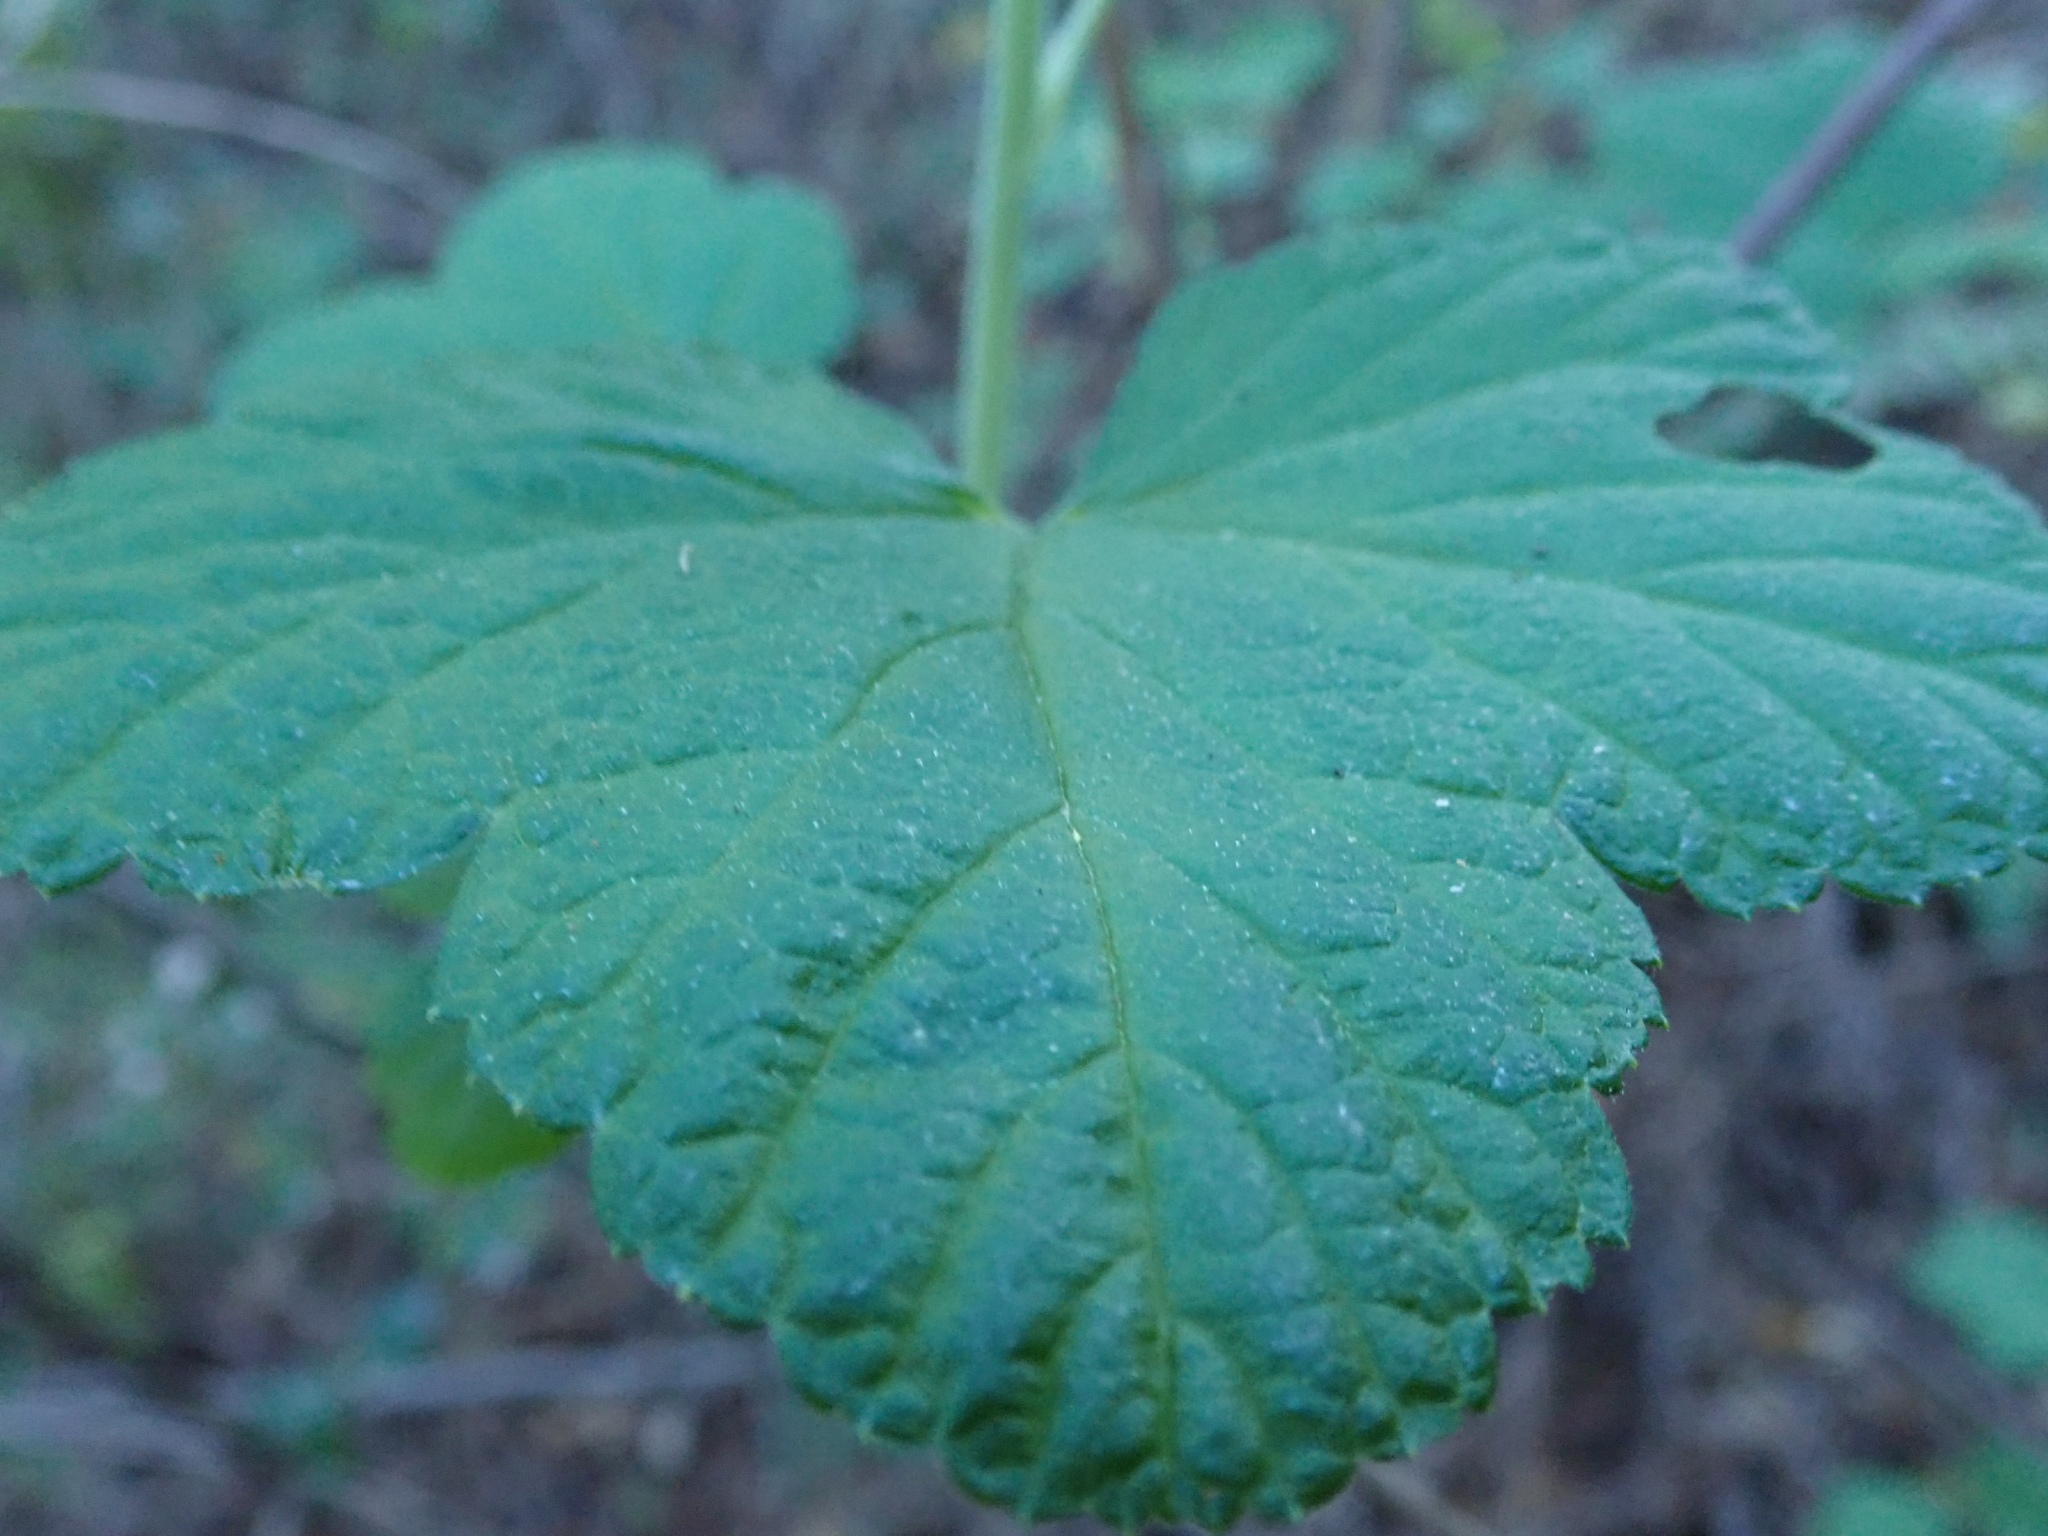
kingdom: Plantae
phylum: Tracheophyta
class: Magnoliopsida
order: Saxifragales
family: Grossulariaceae
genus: Ribes
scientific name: Ribes sanguineum
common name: Flowering currant
